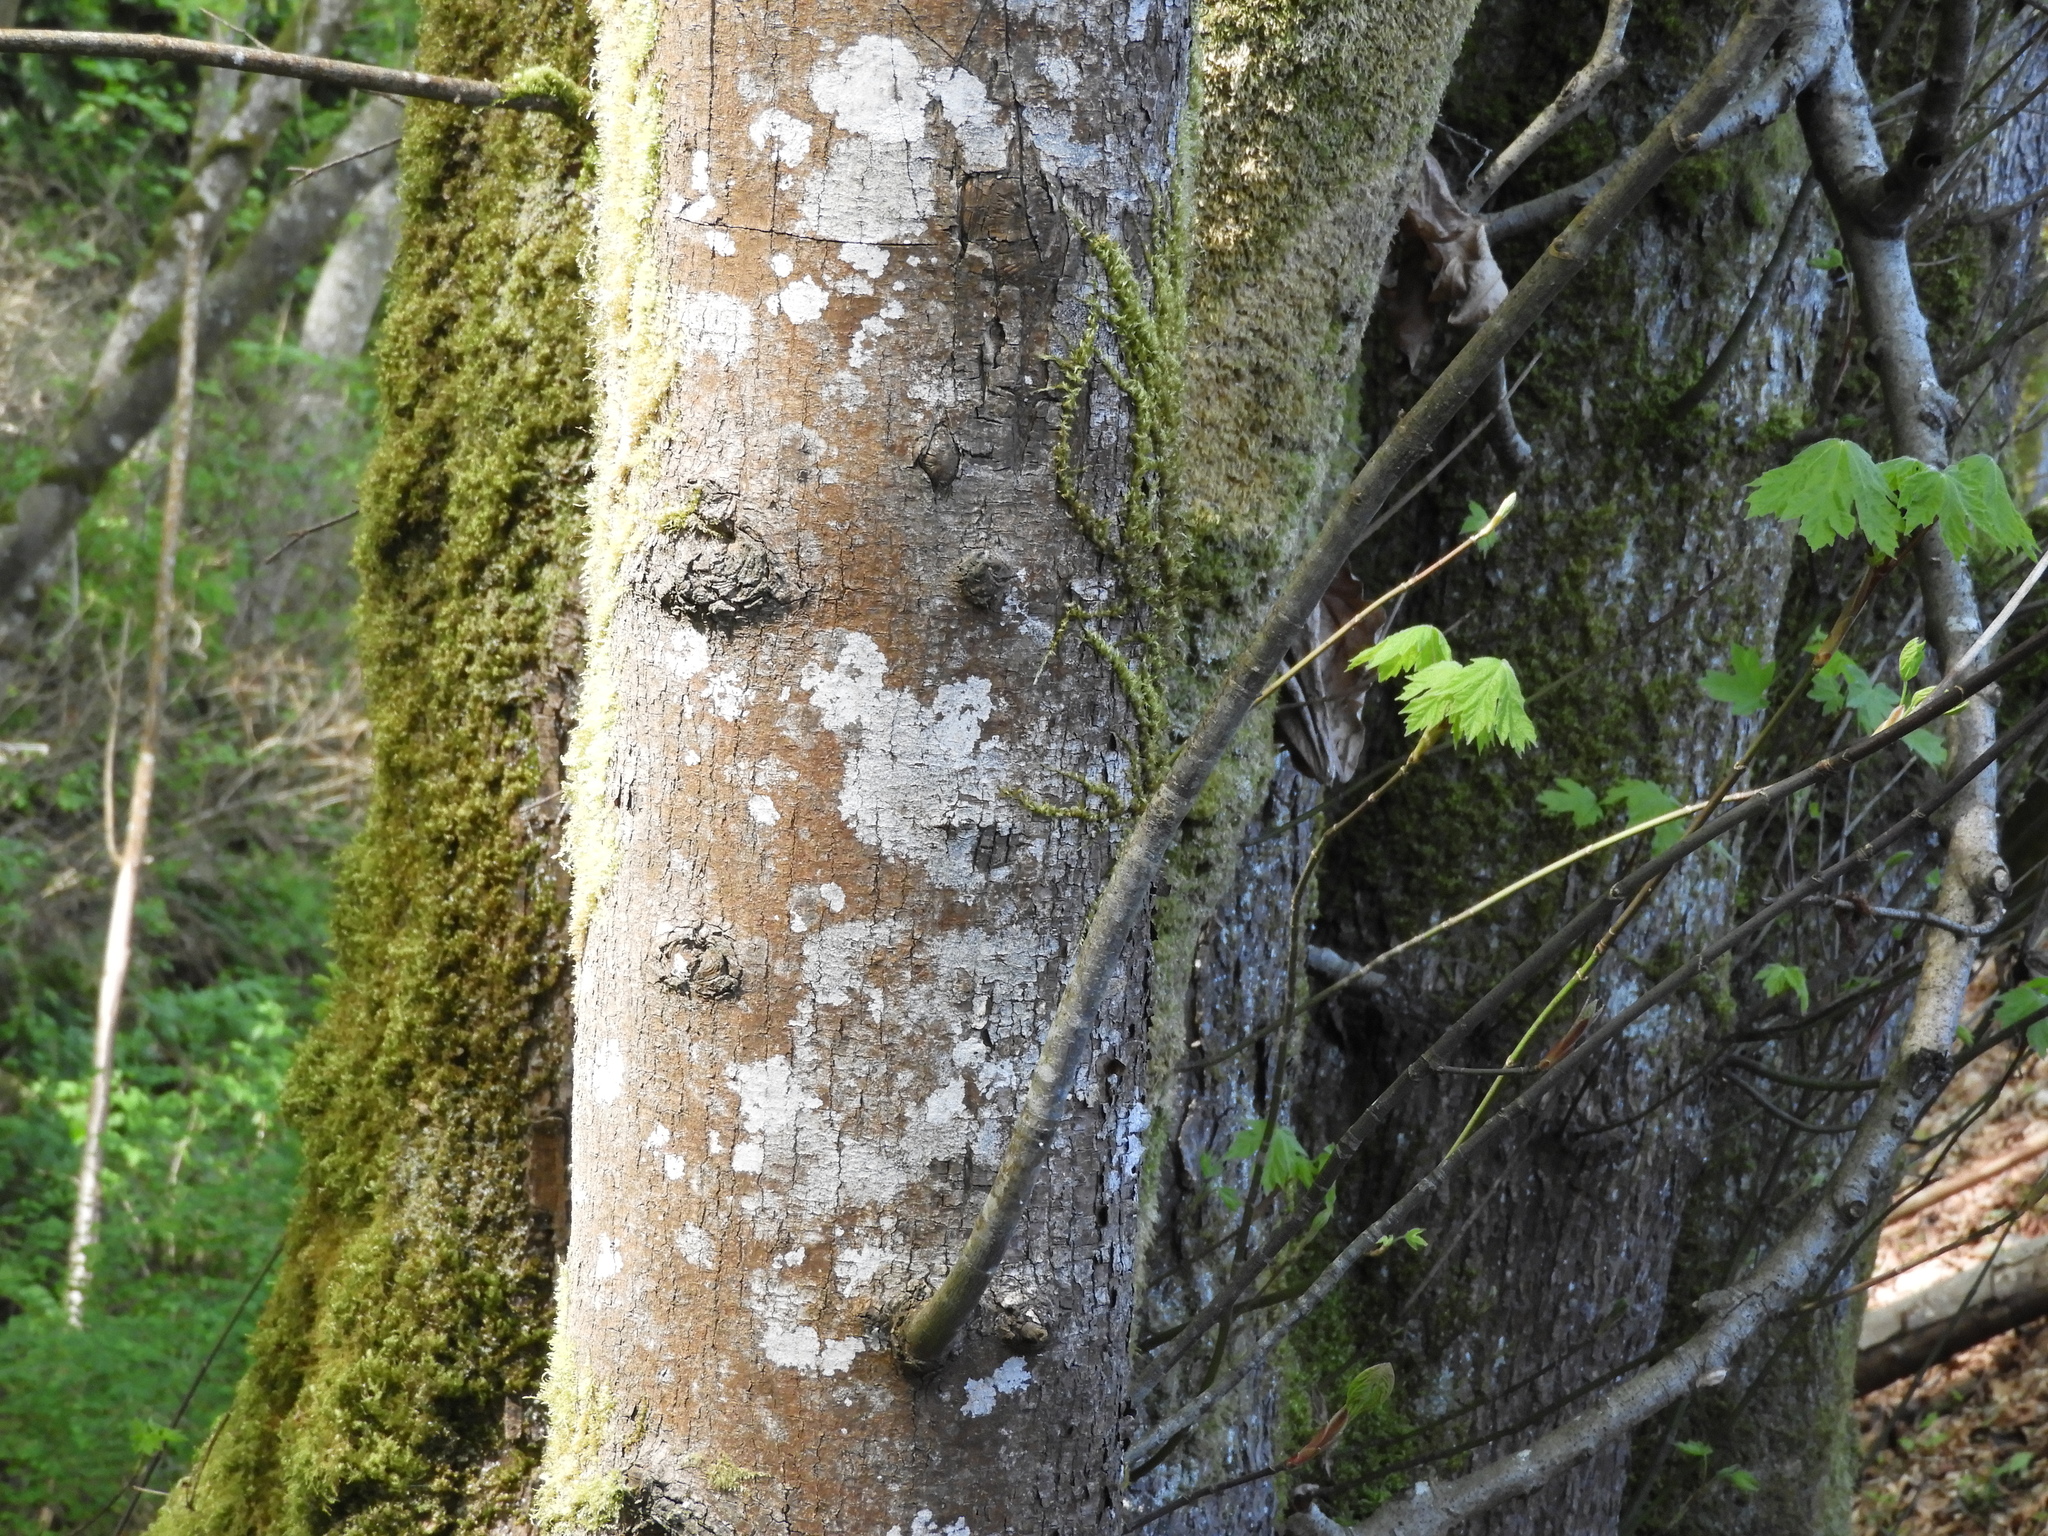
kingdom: Plantae
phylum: Tracheophyta
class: Magnoliopsida
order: Sapindales
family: Sapindaceae
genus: Acer
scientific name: Acer macrophyllum
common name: Oregon maple
